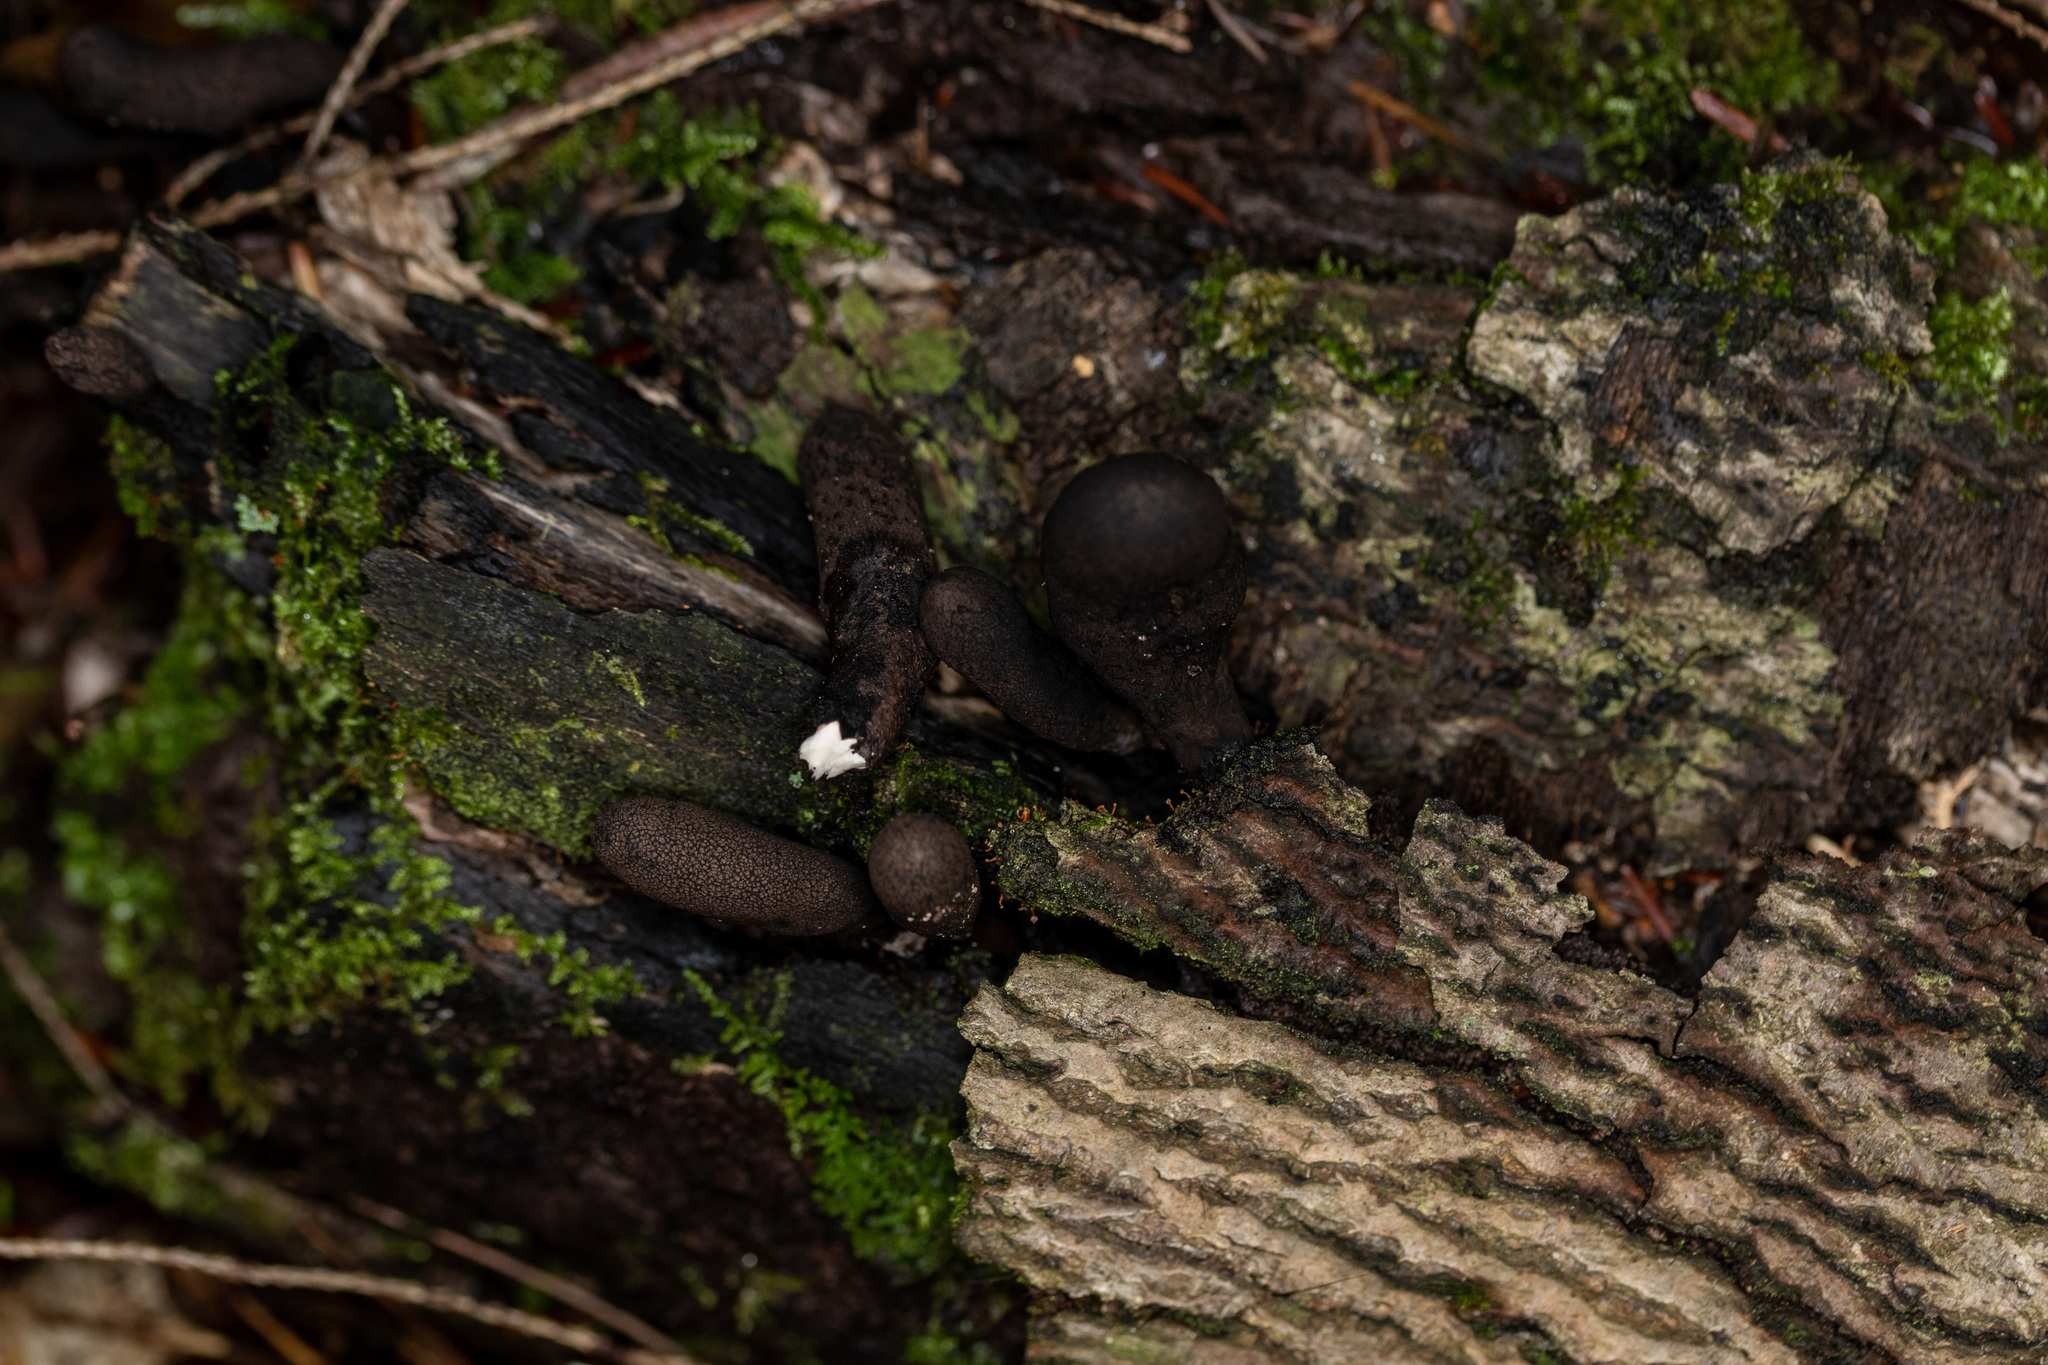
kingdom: Fungi
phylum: Ascomycota
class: Sordariomycetes
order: Xylariales
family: Xylariaceae
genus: Xylaria
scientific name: Xylaria ellisii
